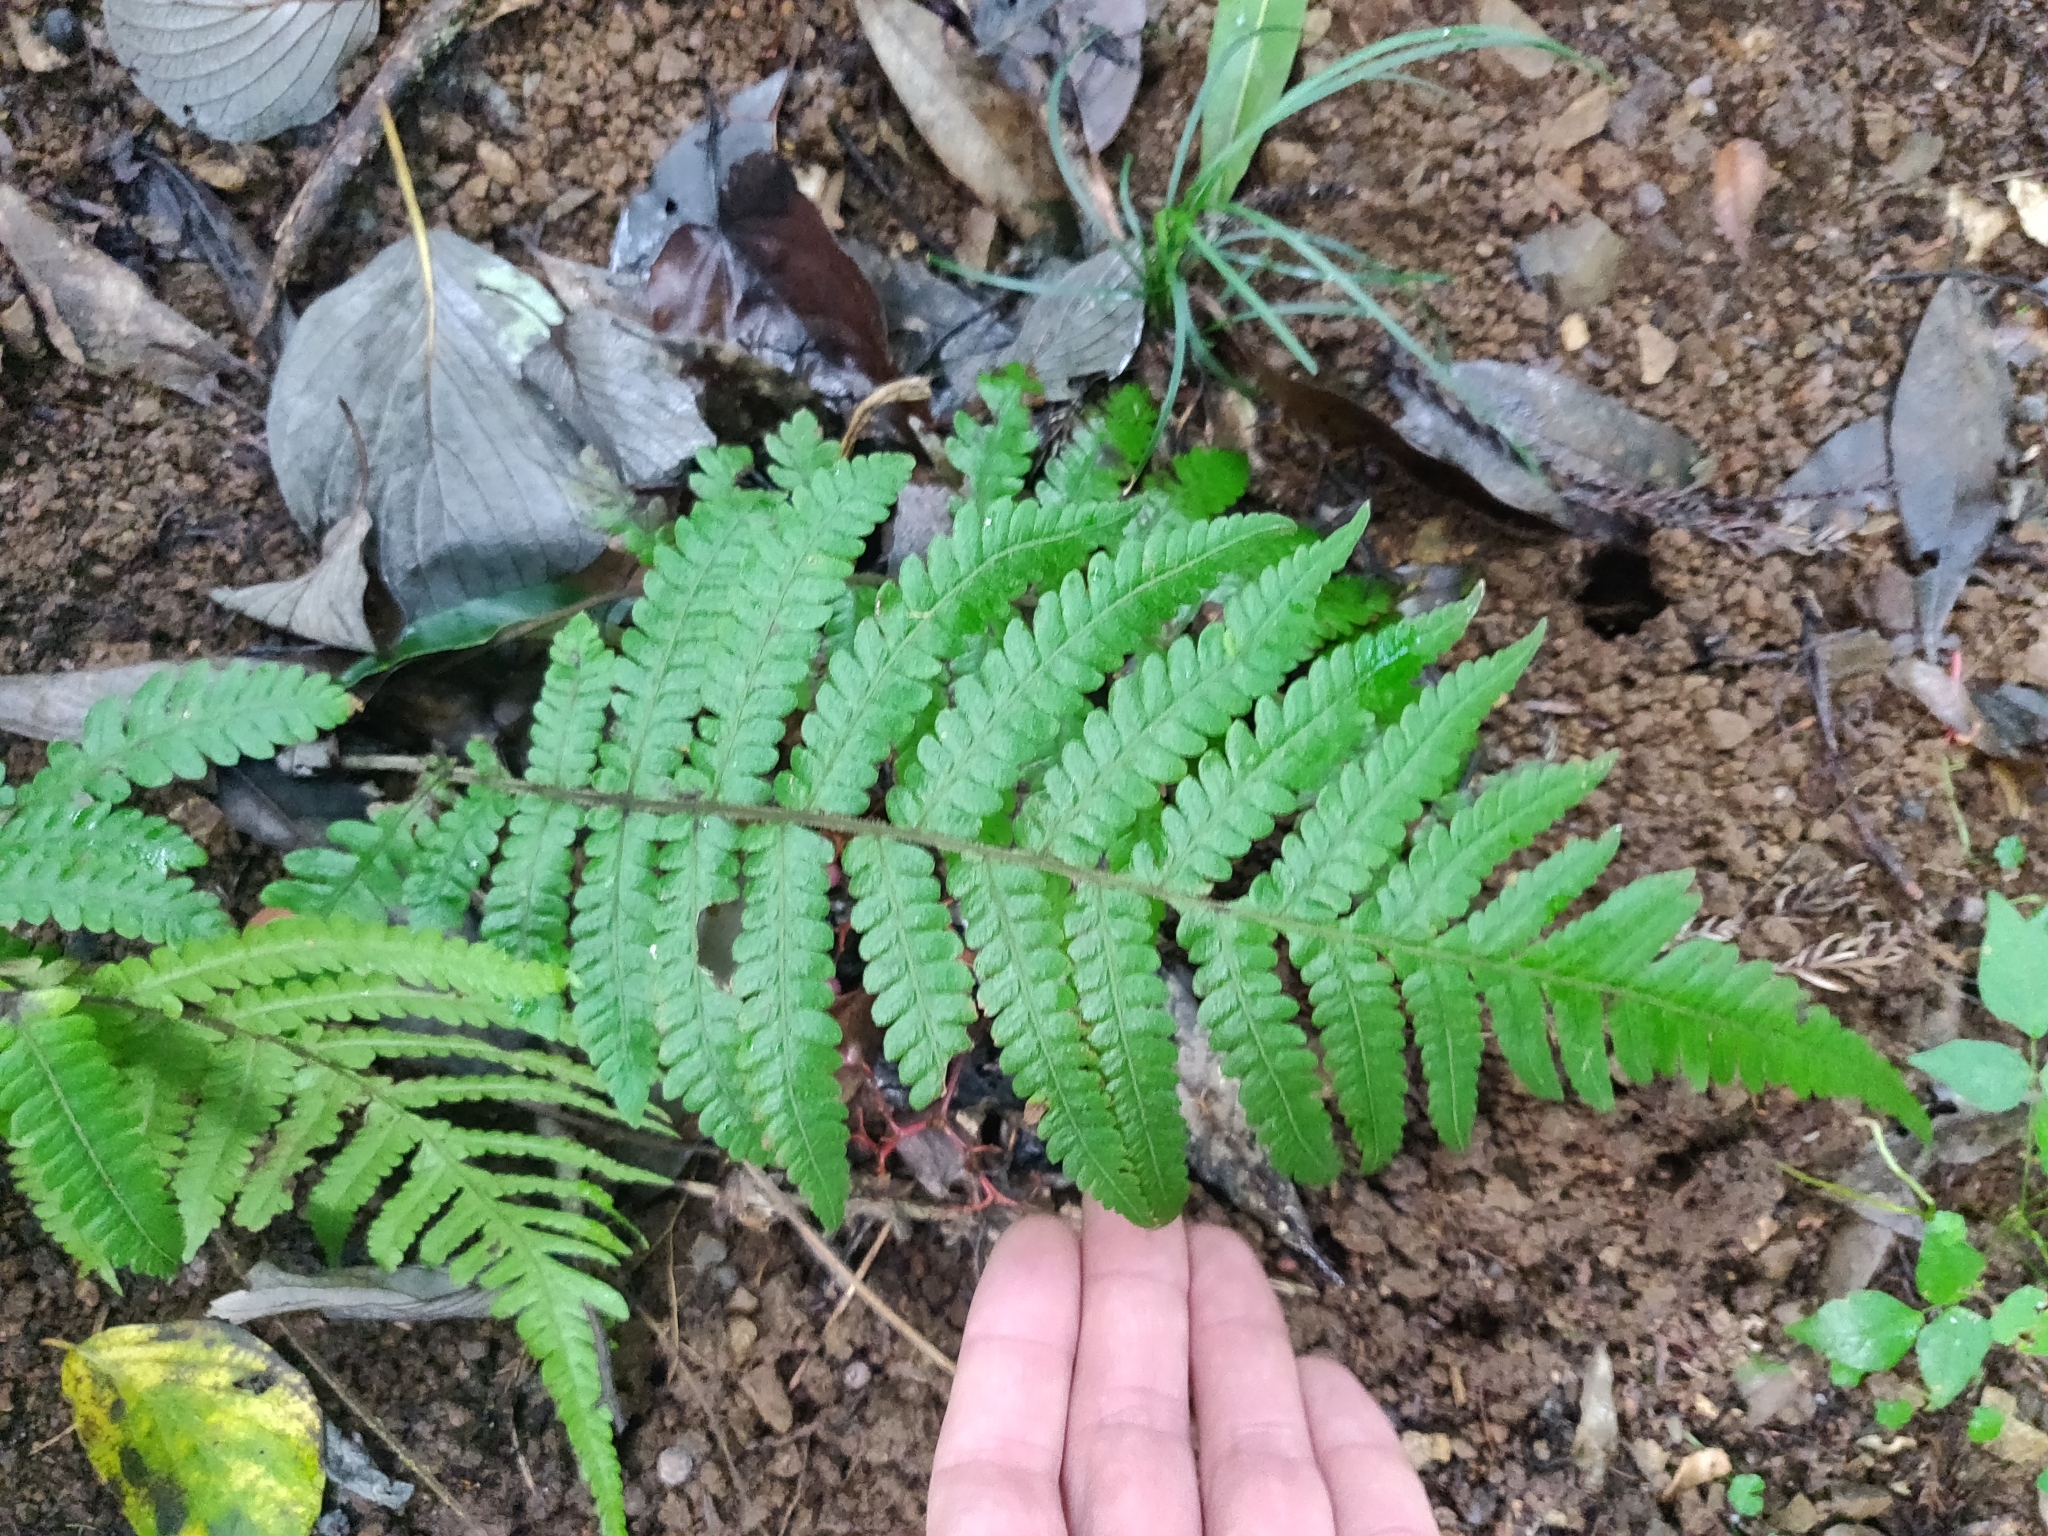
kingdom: Plantae
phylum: Tracheophyta
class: Polypodiopsida
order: Polypodiales
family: Thelypteridaceae
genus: Leptogramma
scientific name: Leptogramma mollissima
